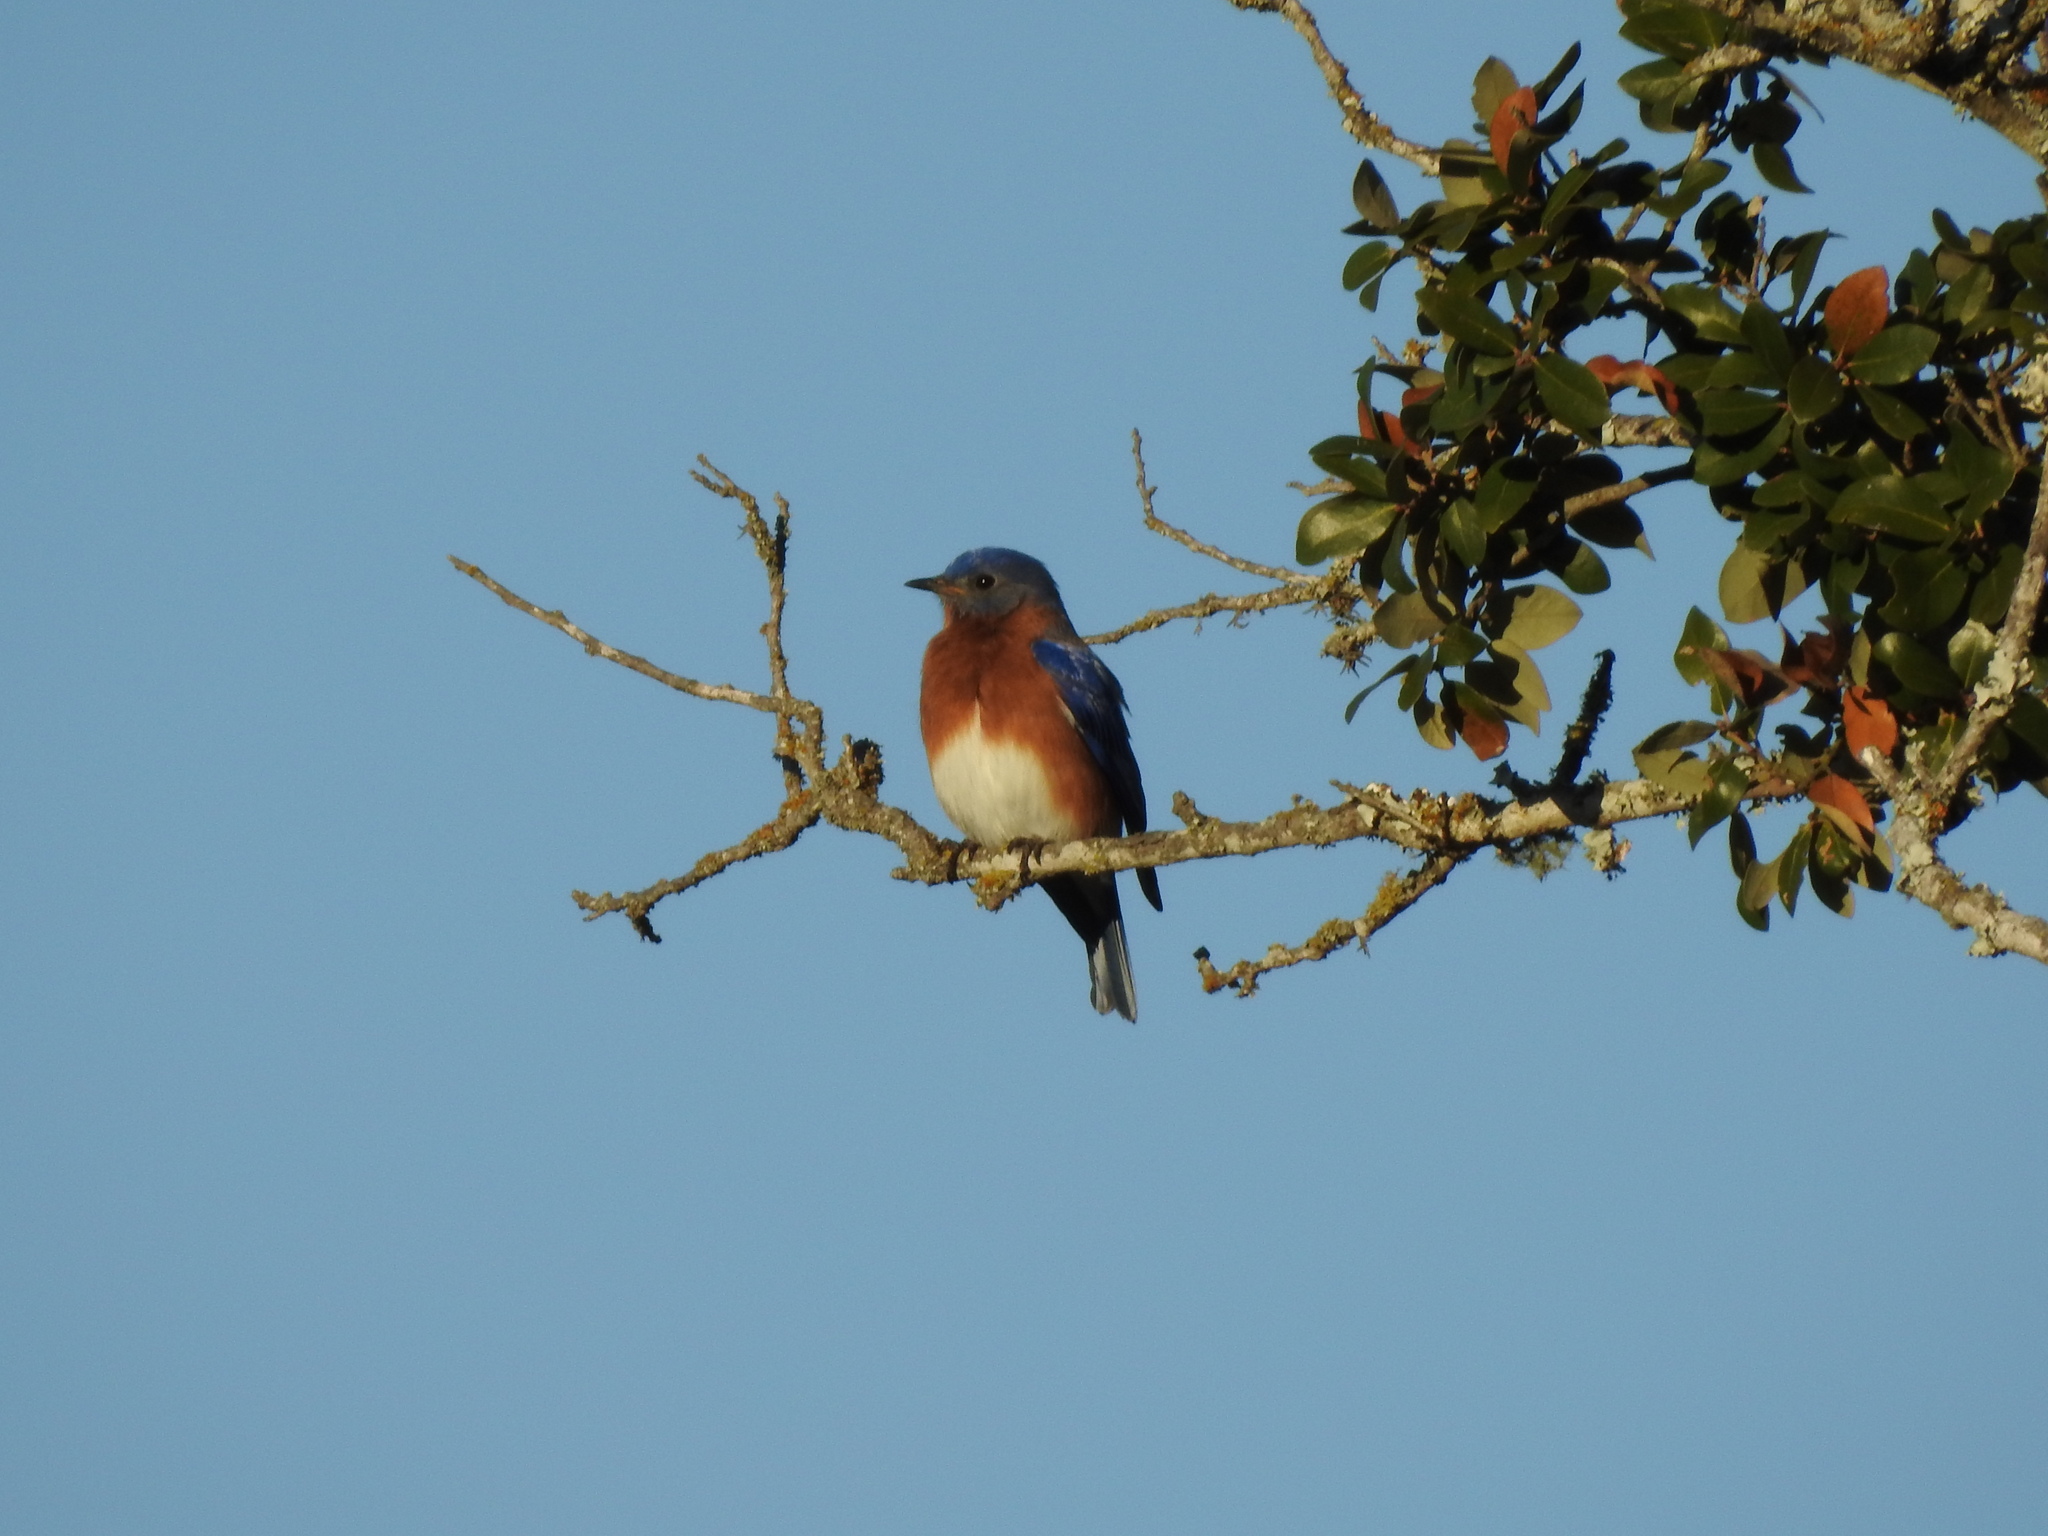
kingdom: Animalia
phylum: Chordata
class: Aves
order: Passeriformes
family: Turdidae
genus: Sialia
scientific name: Sialia sialis
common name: Eastern bluebird
